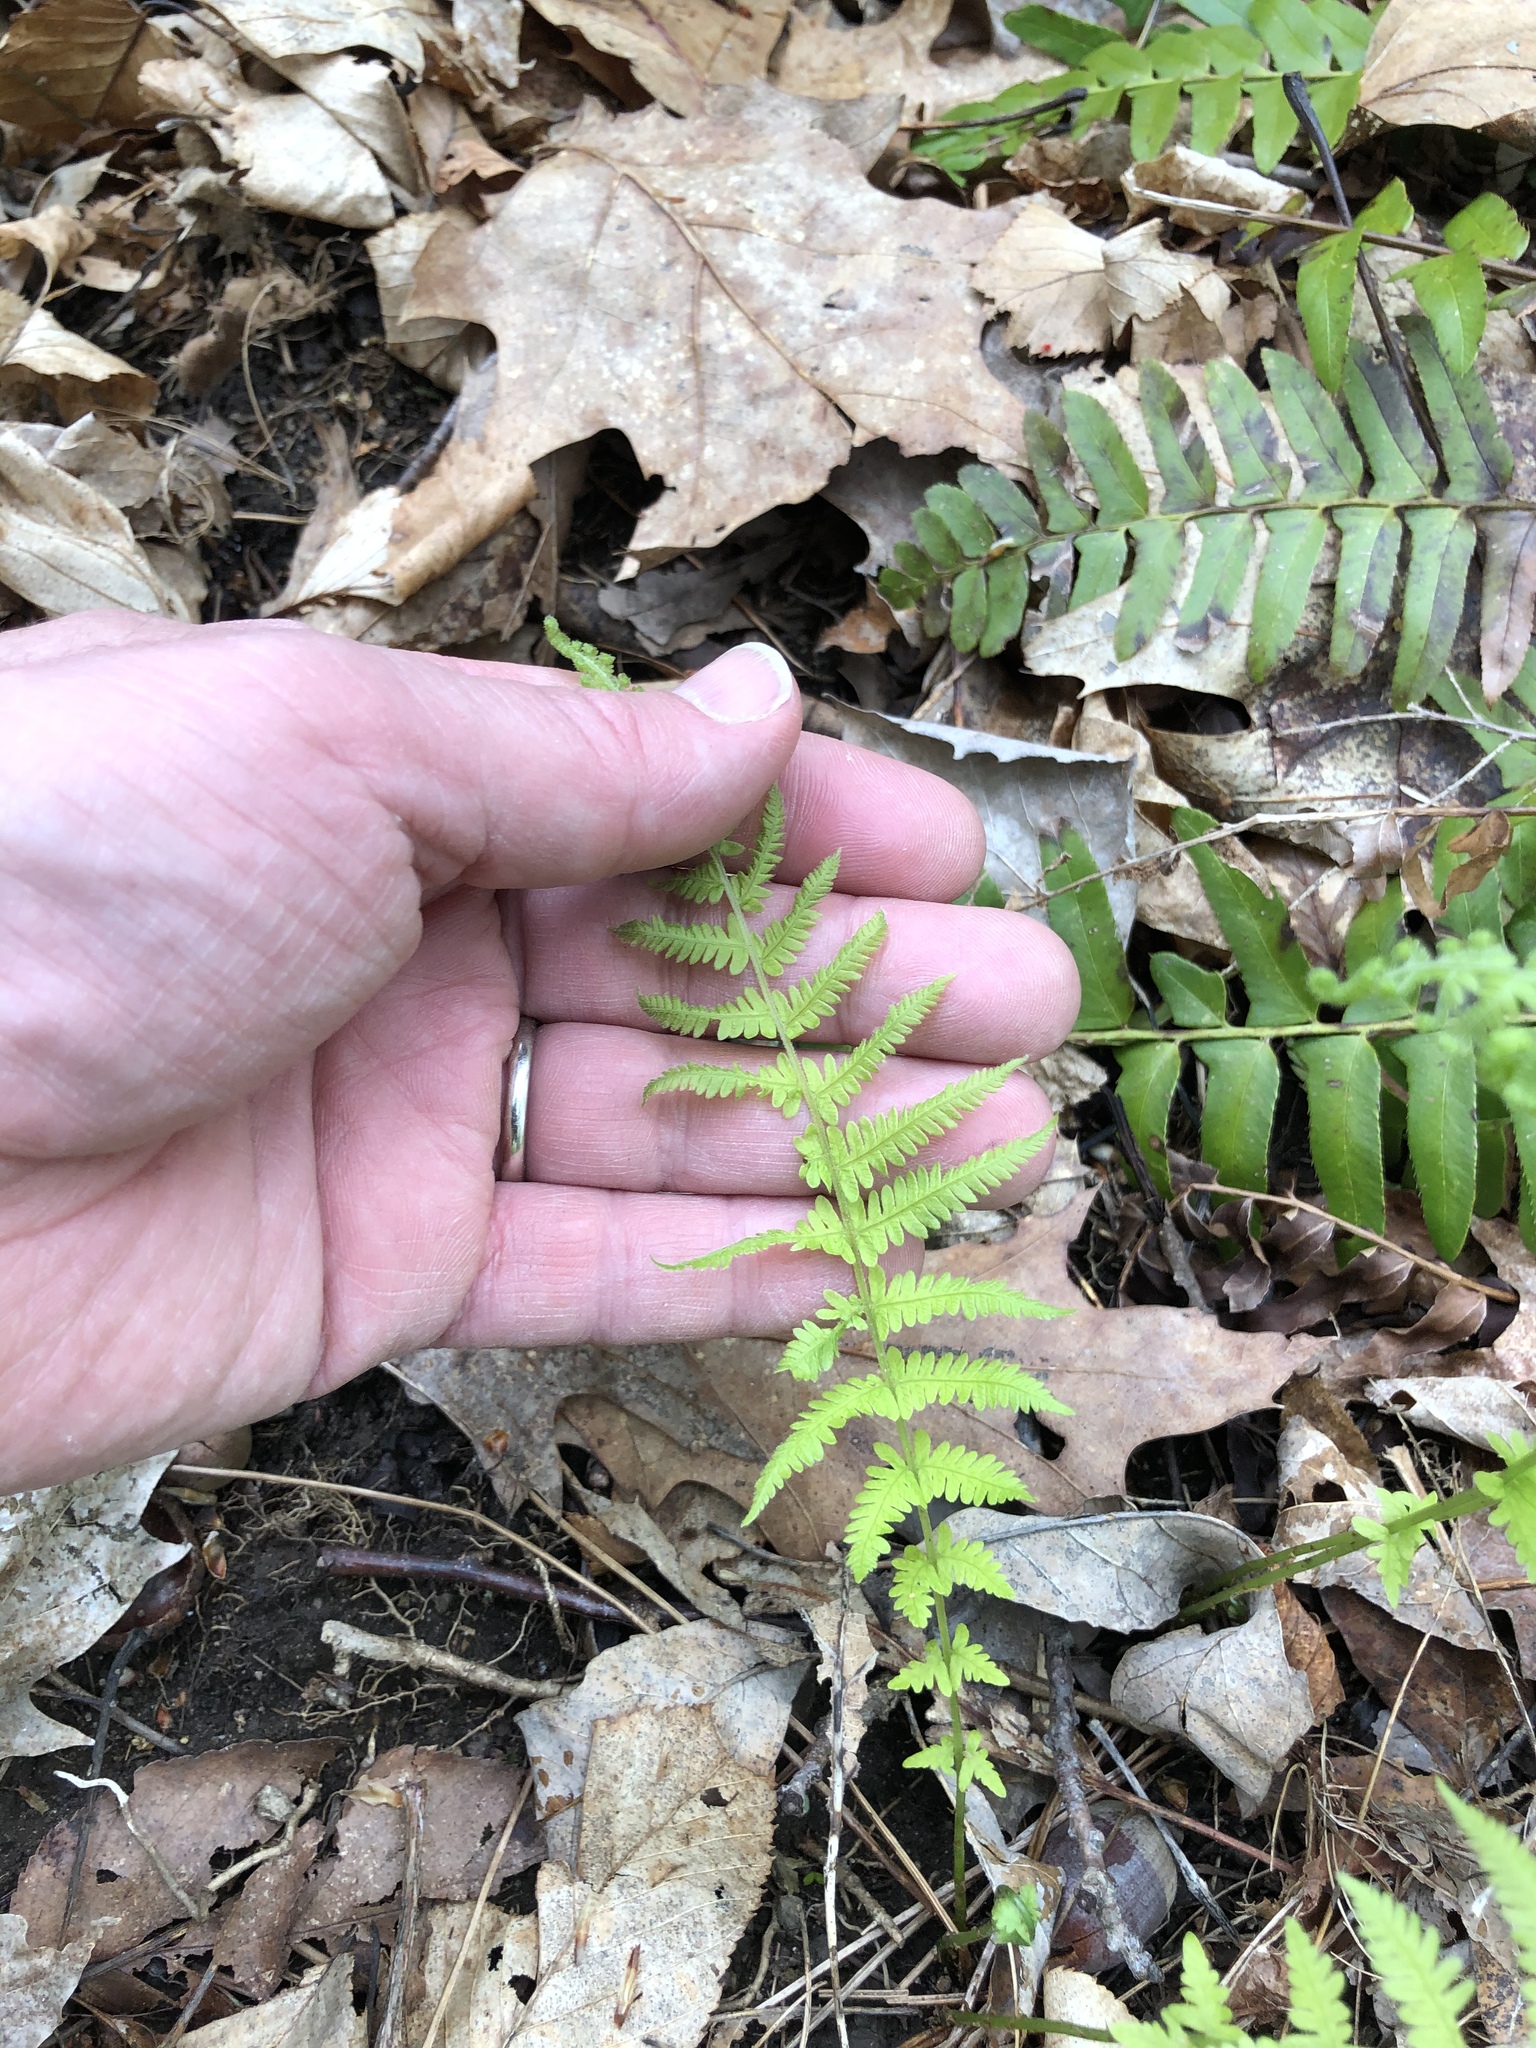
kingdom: Plantae
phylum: Tracheophyta
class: Polypodiopsida
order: Polypodiales
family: Thelypteridaceae
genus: Amauropelta
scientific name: Amauropelta noveboracensis
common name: New york fern
